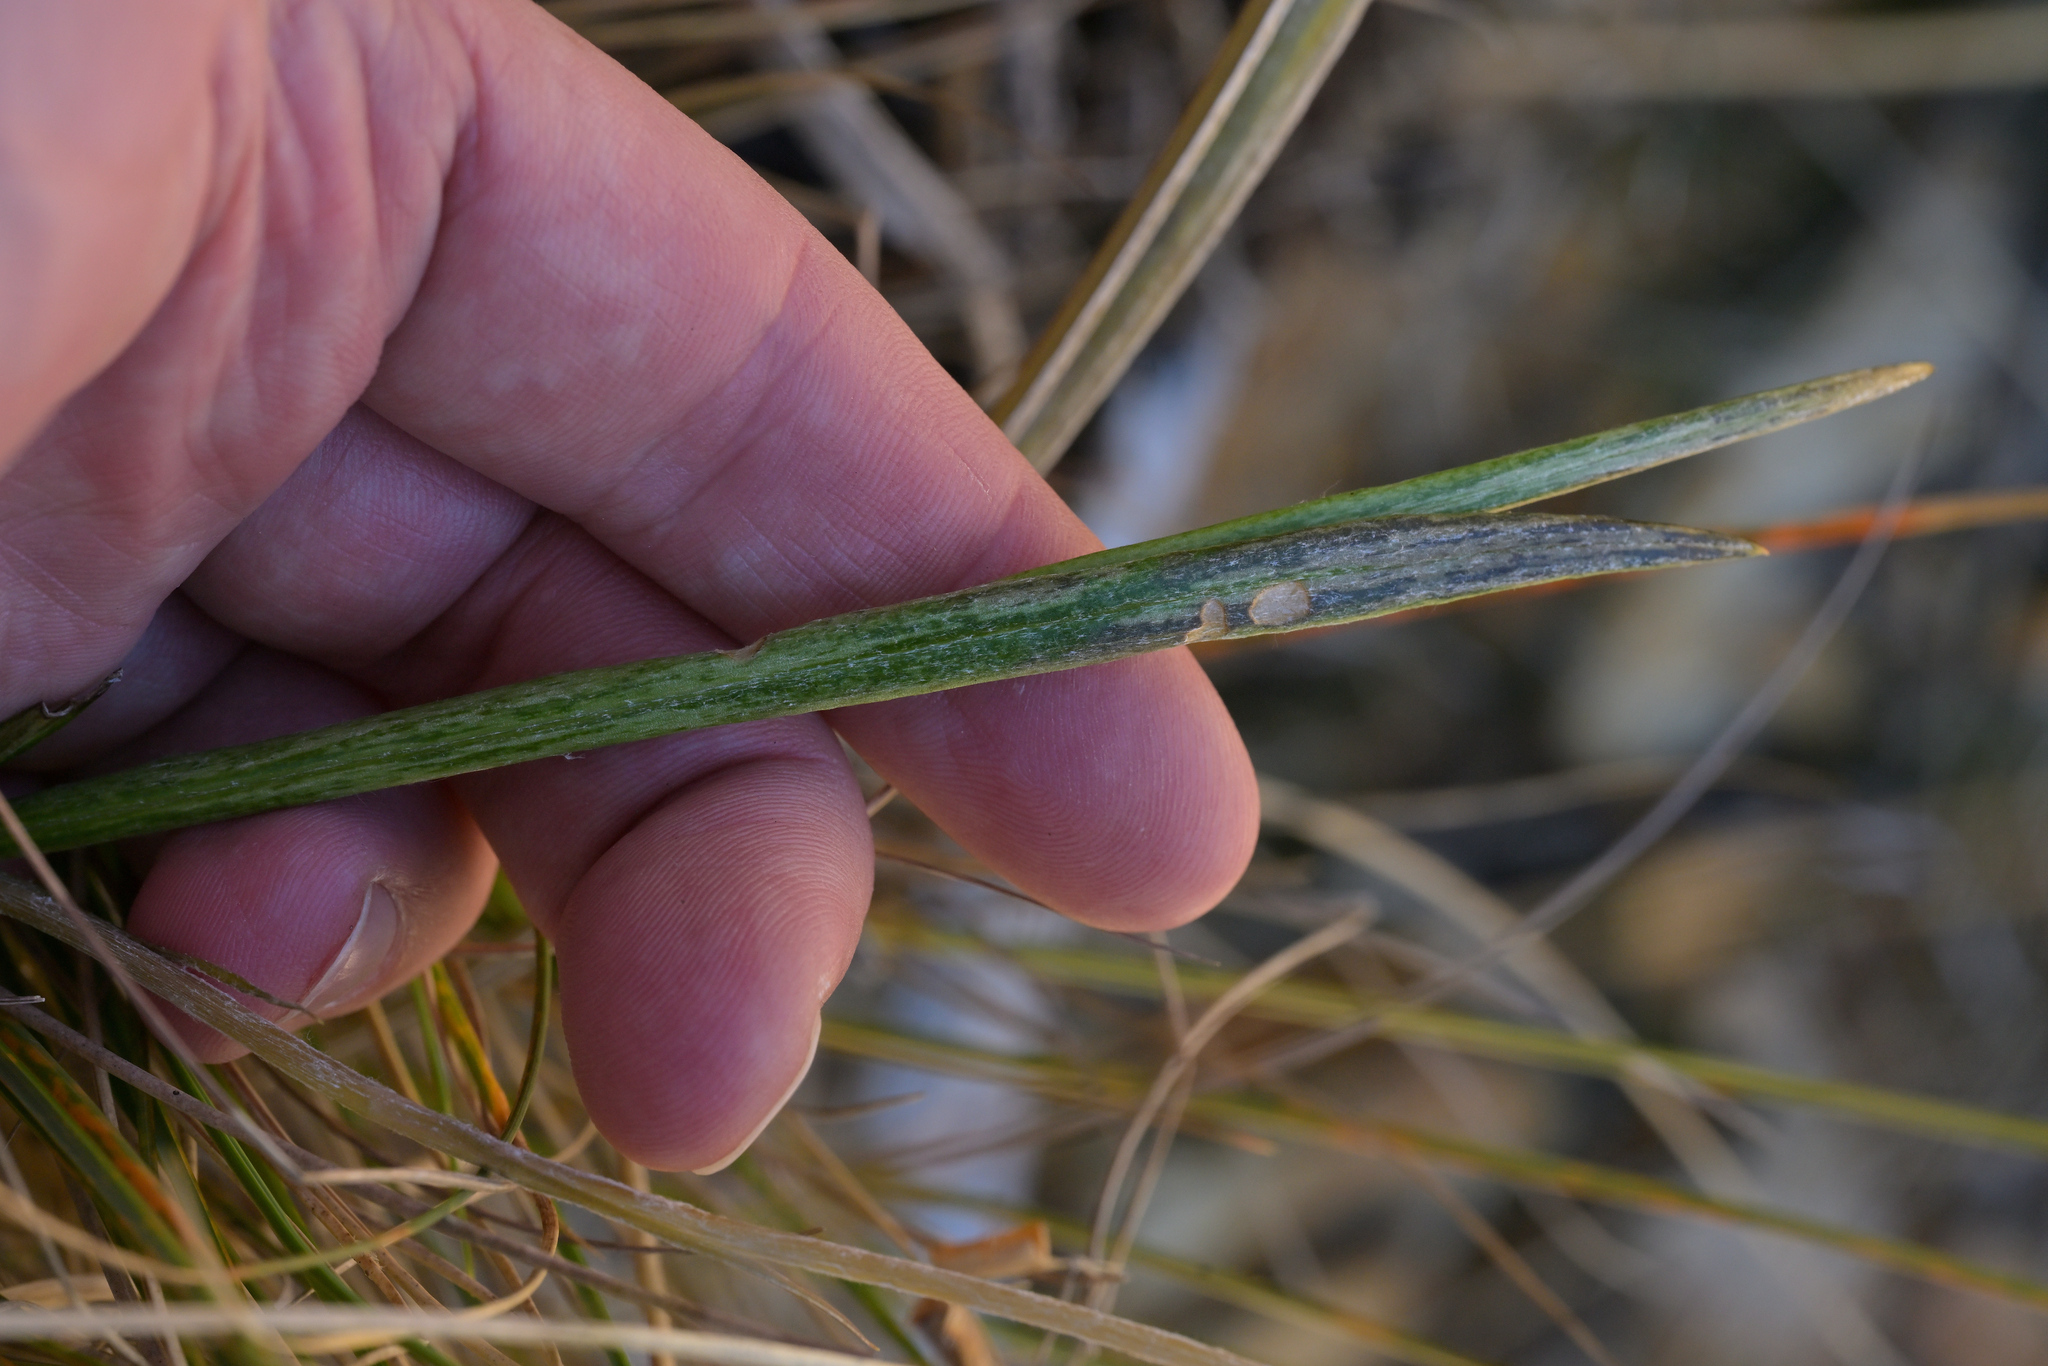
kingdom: Plantae
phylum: Tracheophyta
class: Magnoliopsida
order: Asterales
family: Asteraceae
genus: Celmisia
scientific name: Celmisia gracilenta
